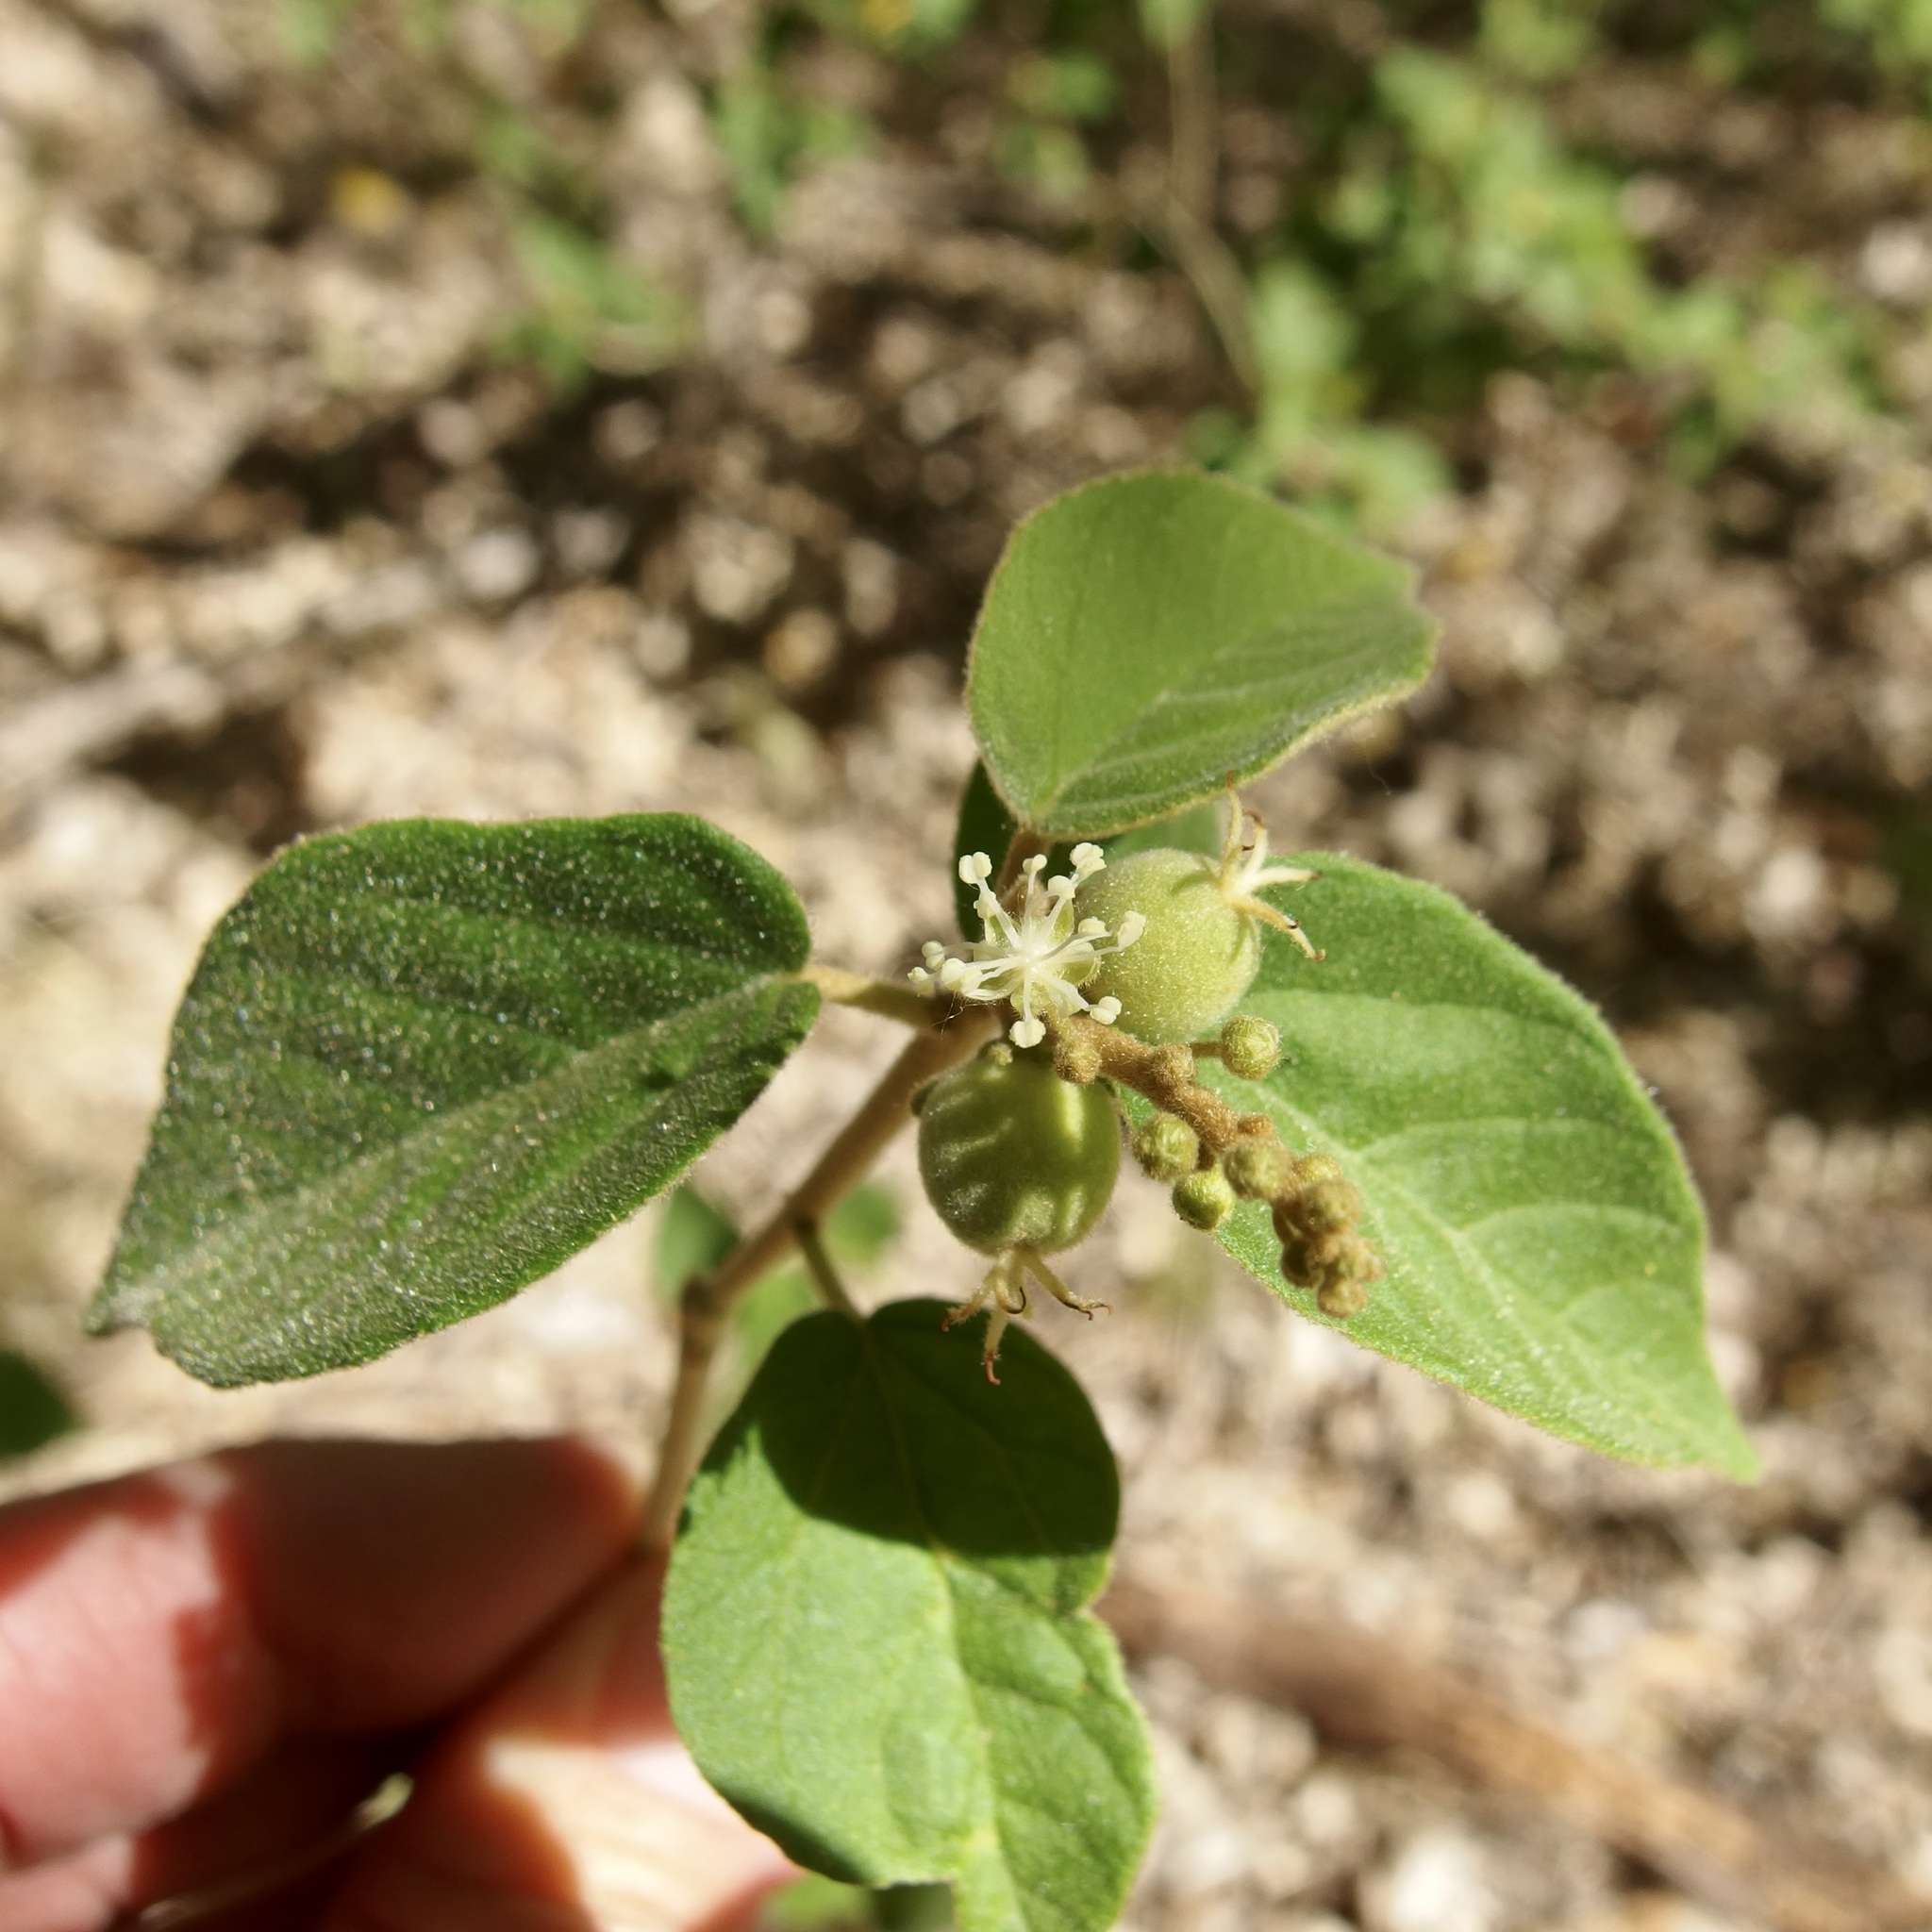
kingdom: Plantae
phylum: Tracheophyta
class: Magnoliopsida
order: Malpighiales
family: Euphorbiaceae
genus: Croton
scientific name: Croton fruticulosus
